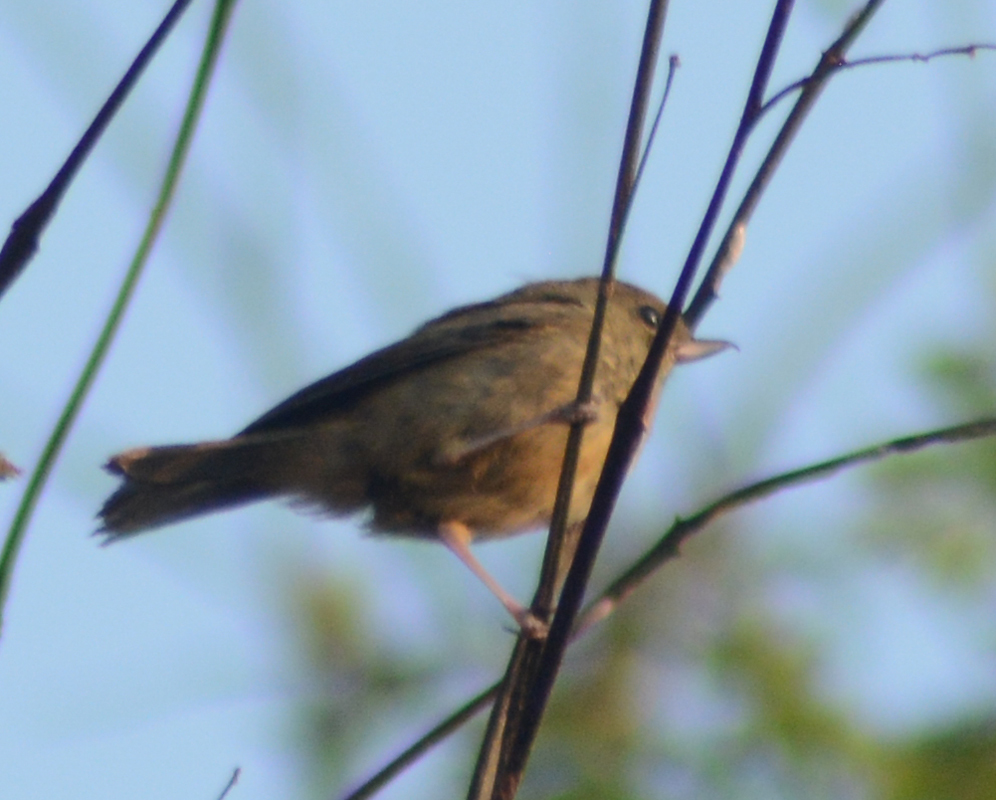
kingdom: Animalia
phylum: Chordata
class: Aves
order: Passeriformes
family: Thraupidae
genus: Diglossa
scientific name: Diglossa baritula
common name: Cinnamon-bellied flowerpiercer
